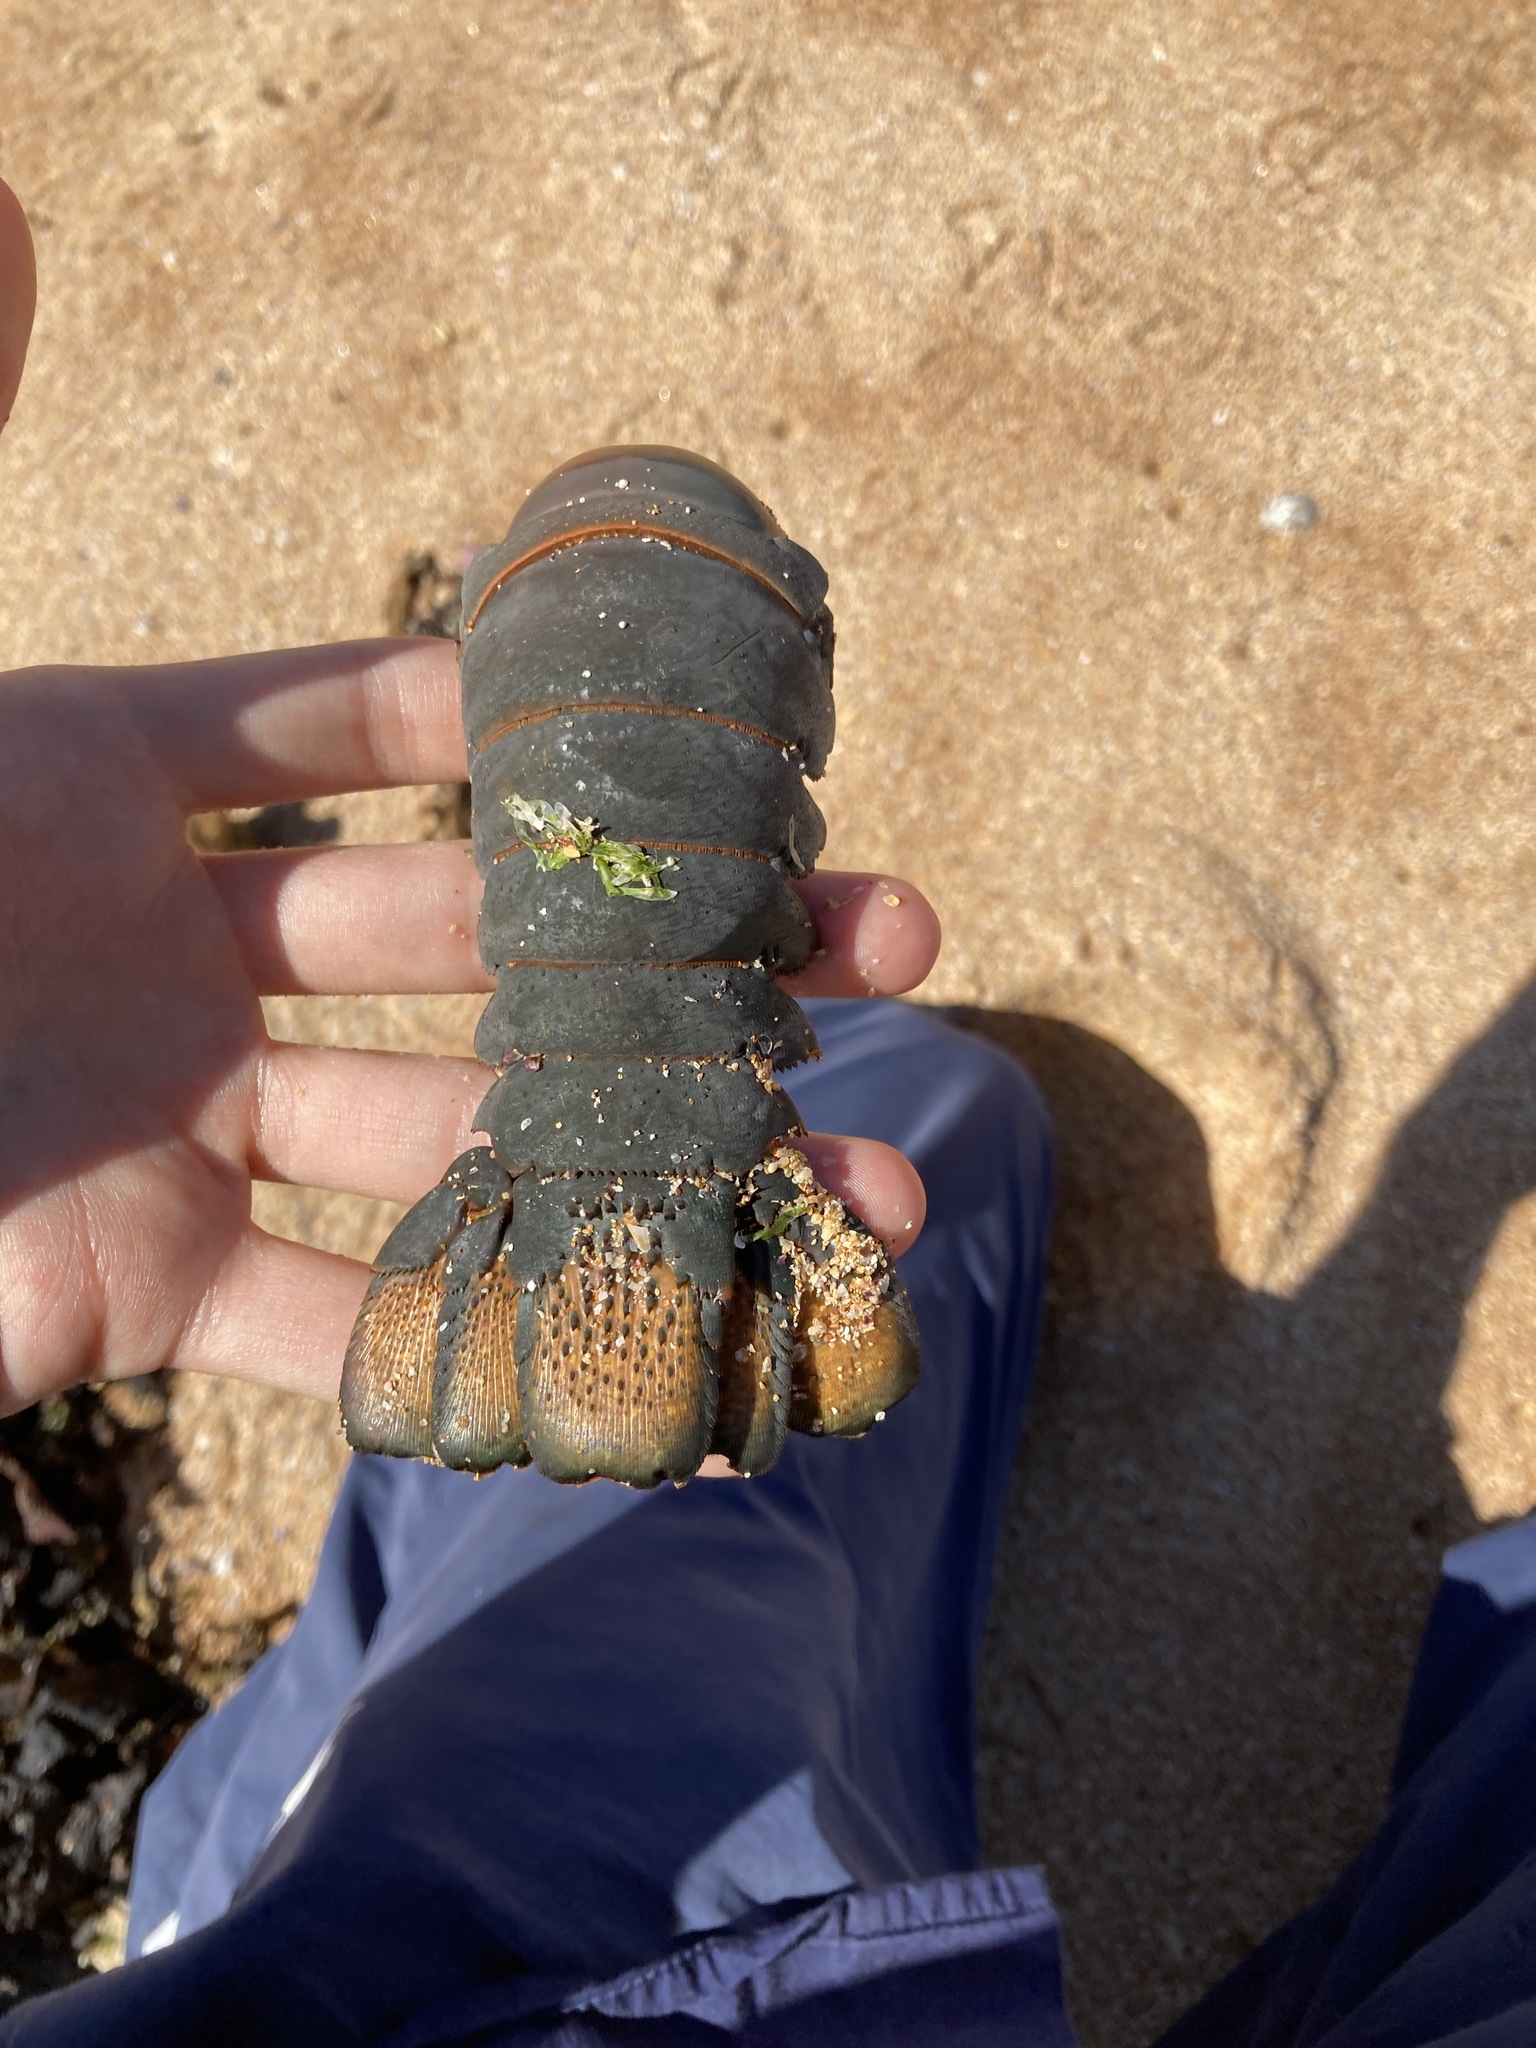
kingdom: Animalia
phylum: Arthropoda
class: Malacostraca
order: Decapoda
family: Palinuridae
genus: Sagmariasus
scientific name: Sagmariasus verreauxi
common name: Green rock lobster
